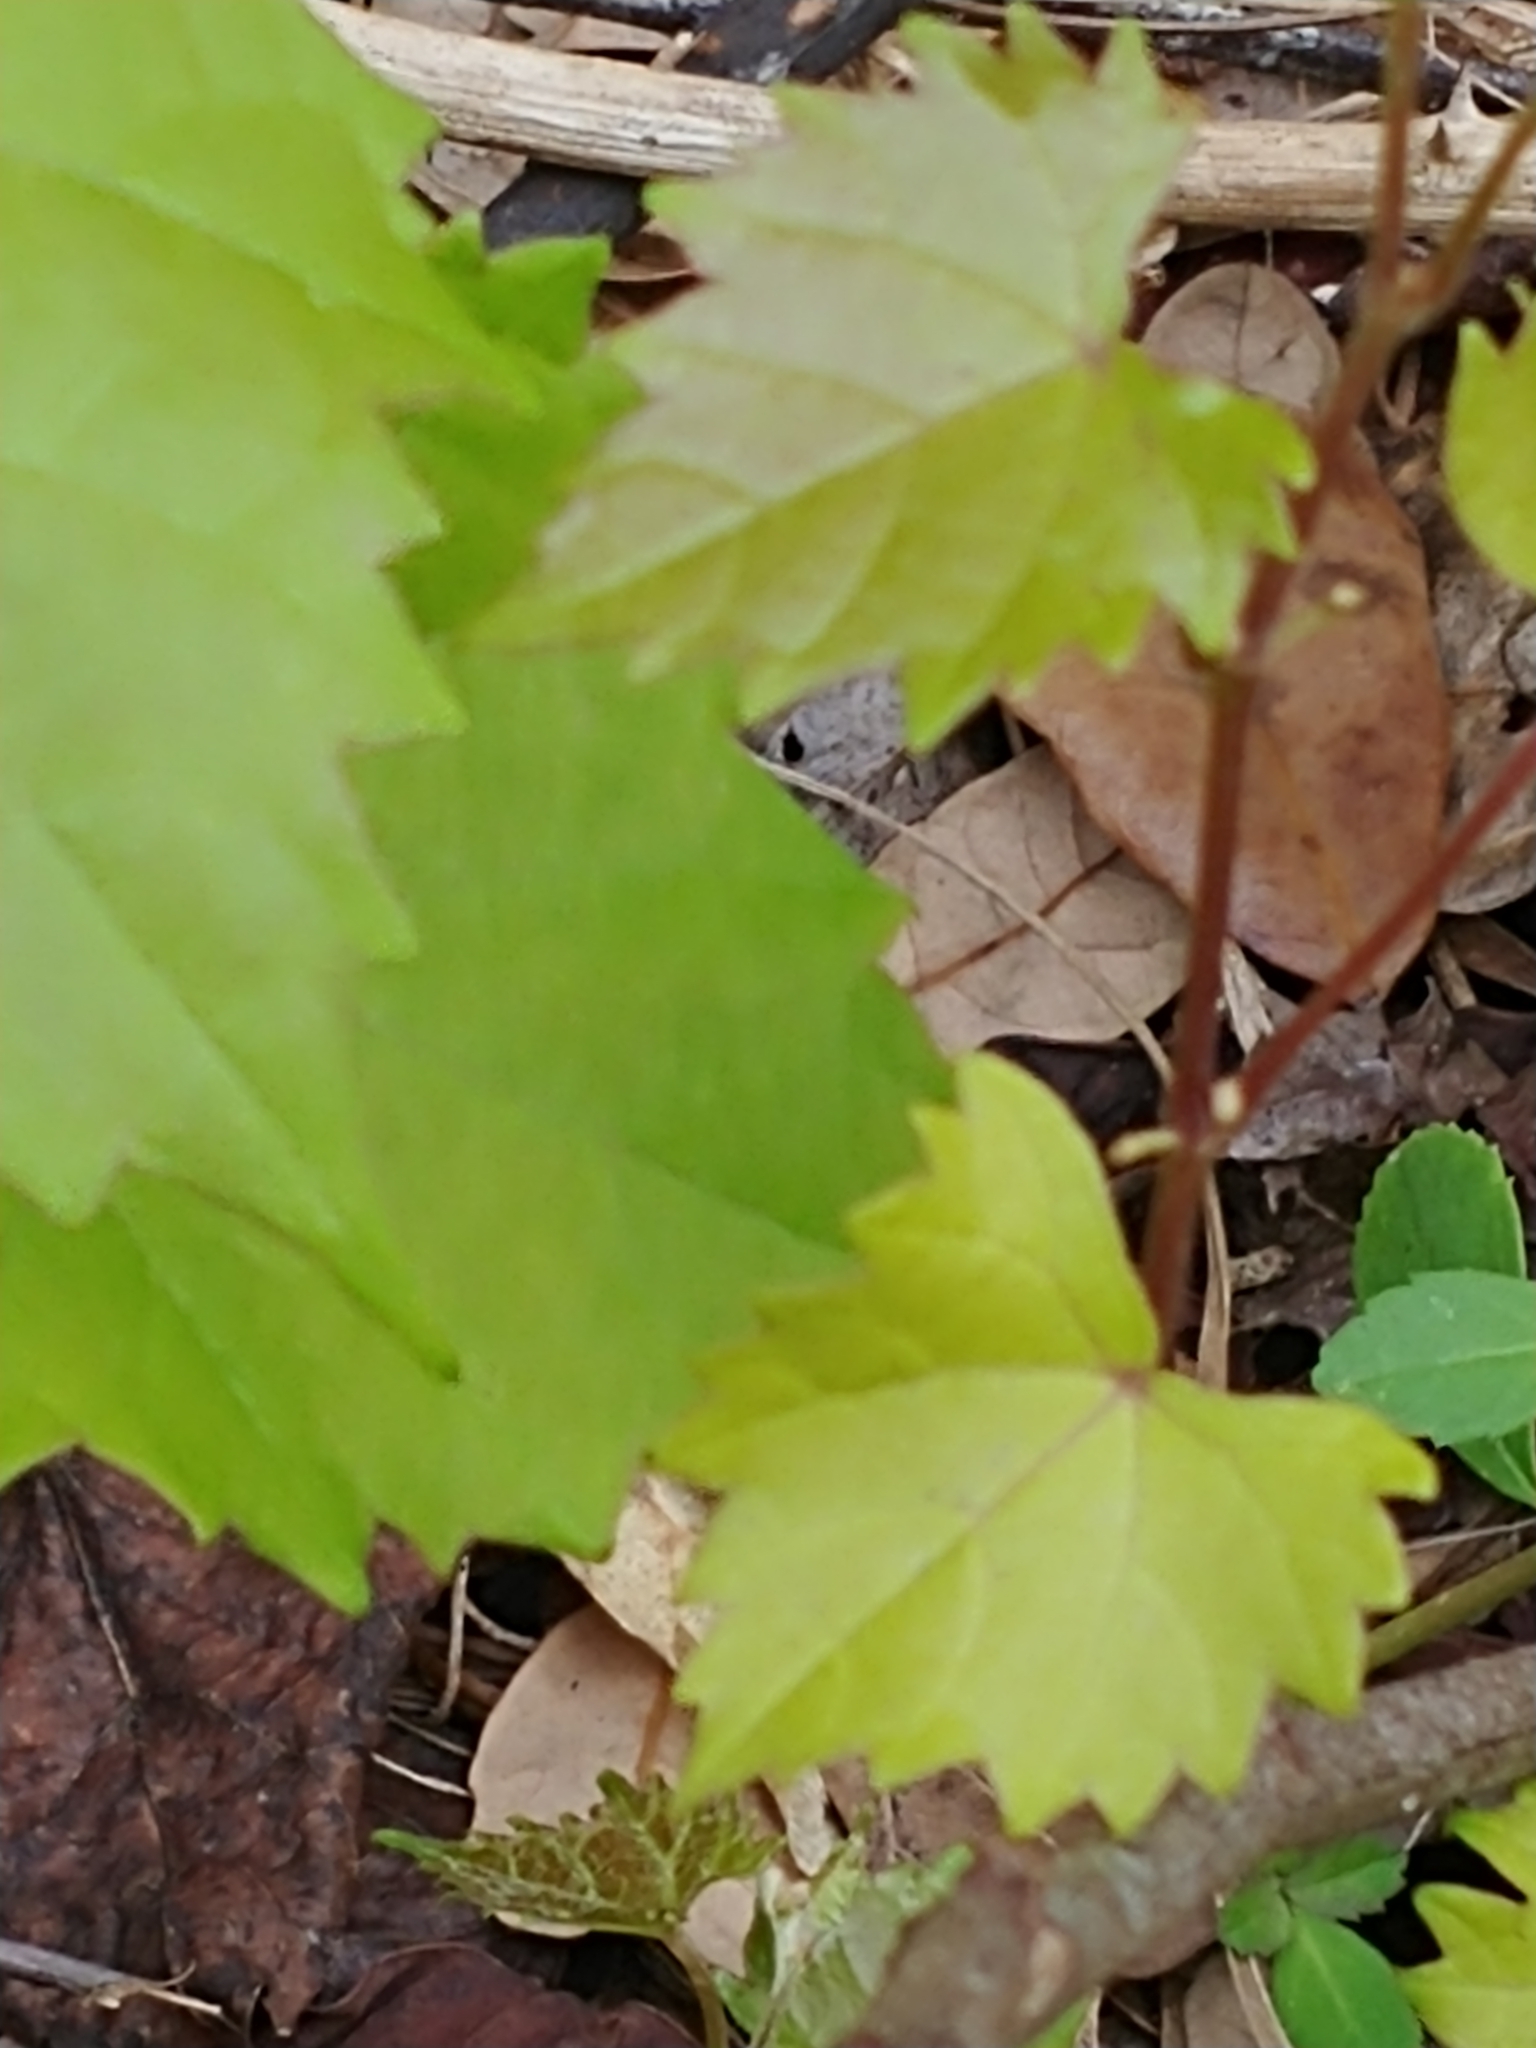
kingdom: Plantae
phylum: Tracheophyta
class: Magnoliopsida
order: Vitales
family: Vitaceae
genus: Vitis
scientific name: Vitis rotundifolia
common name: Muscadine grape
